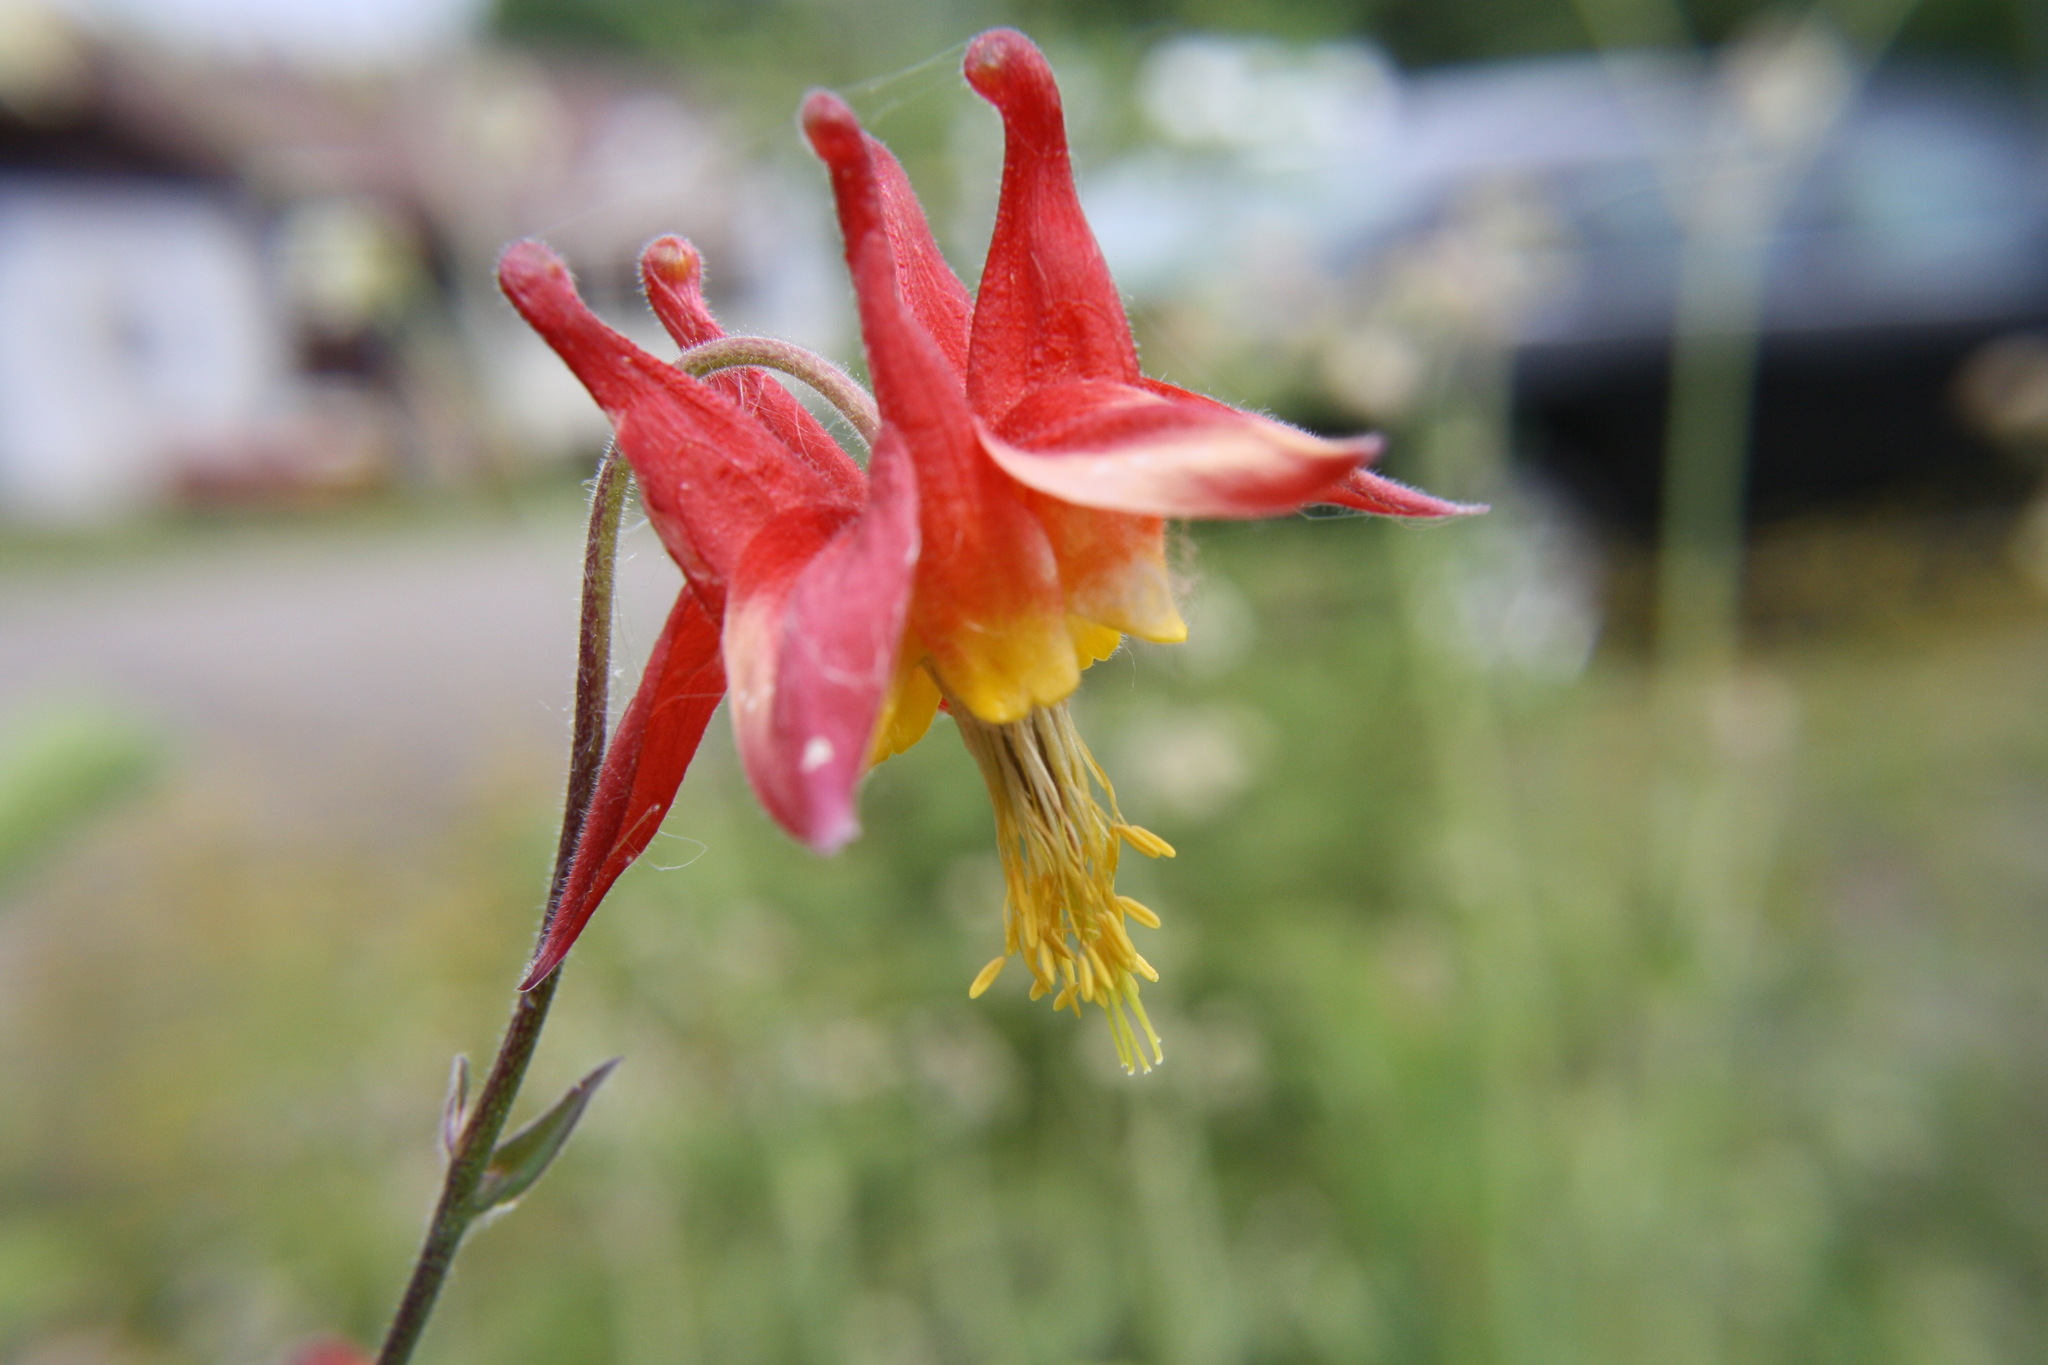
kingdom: Plantae
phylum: Tracheophyta
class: Magnoliopsida
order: Ranunculales
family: Ranunculaceae
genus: Aquilegia
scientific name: Aquilegia formosa
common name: Sitka columbine
